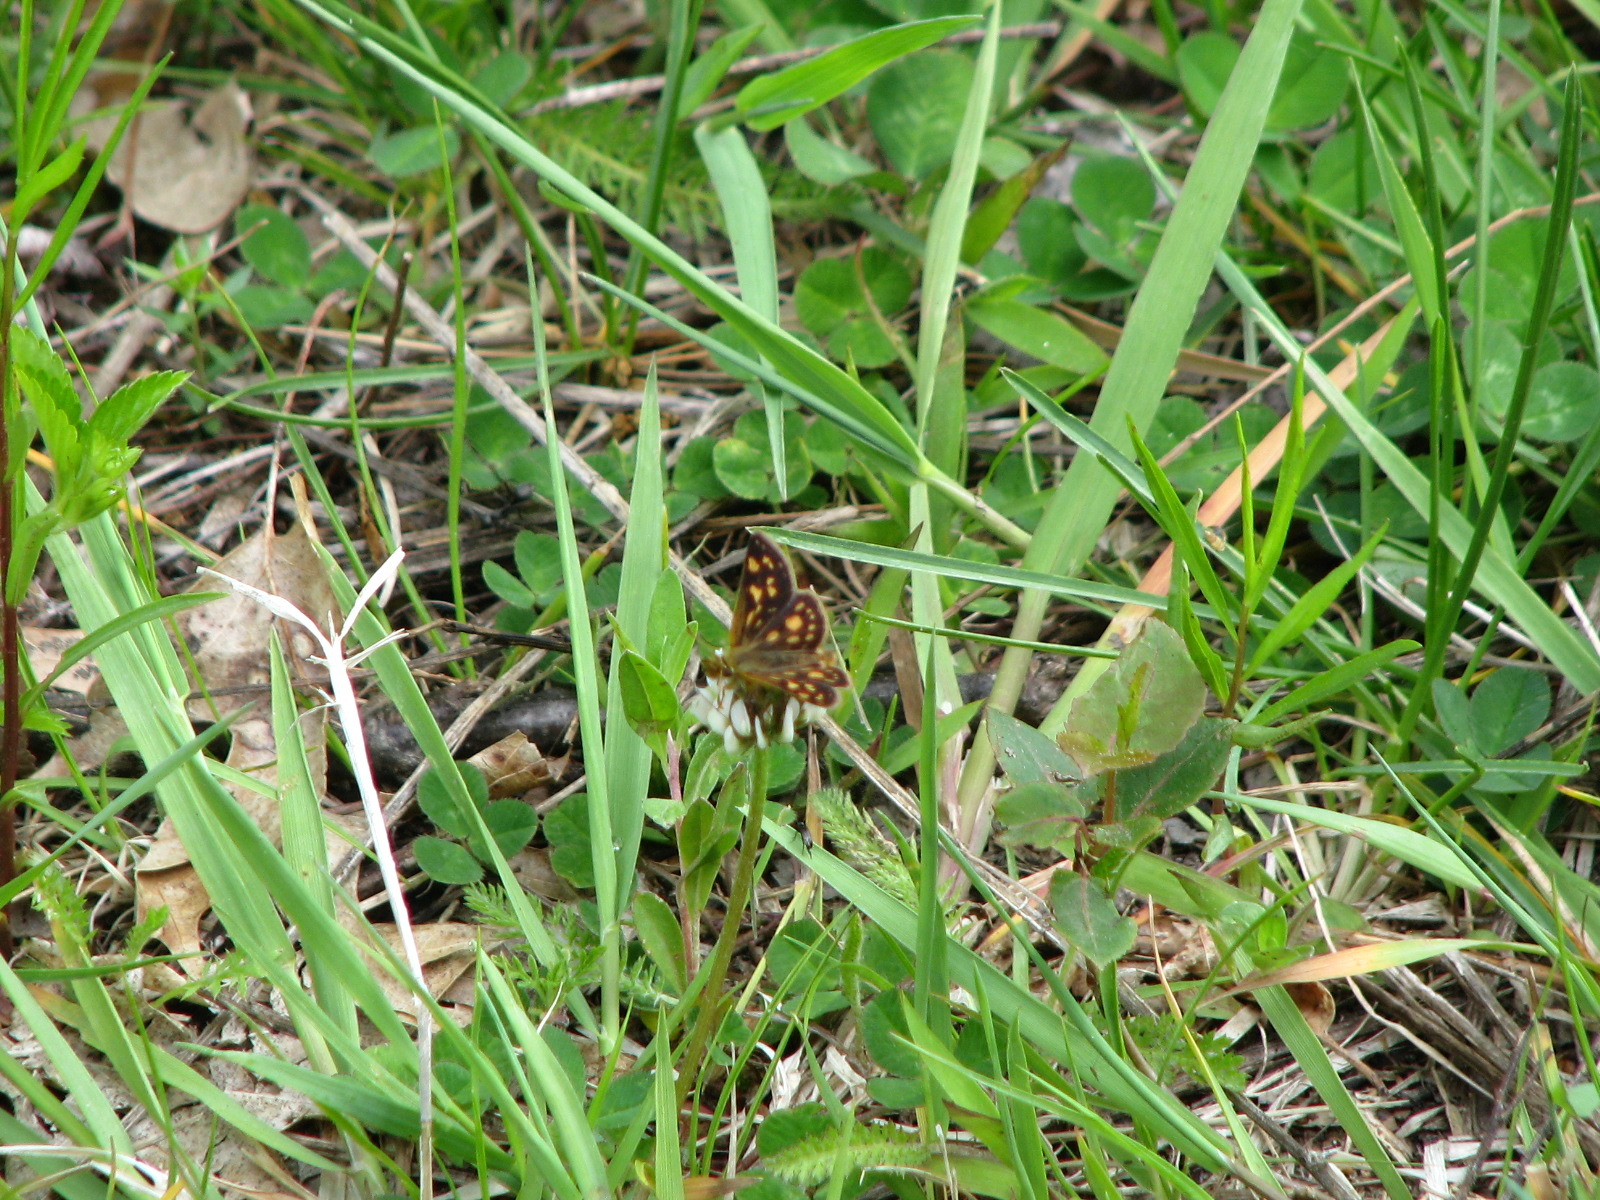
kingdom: Animalia
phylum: Arthropoda
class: Insecta
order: Lepidoptera
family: Hesperiidae
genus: Carterocephalus
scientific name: Carterocephalus mandan
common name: Arctic skipperling
